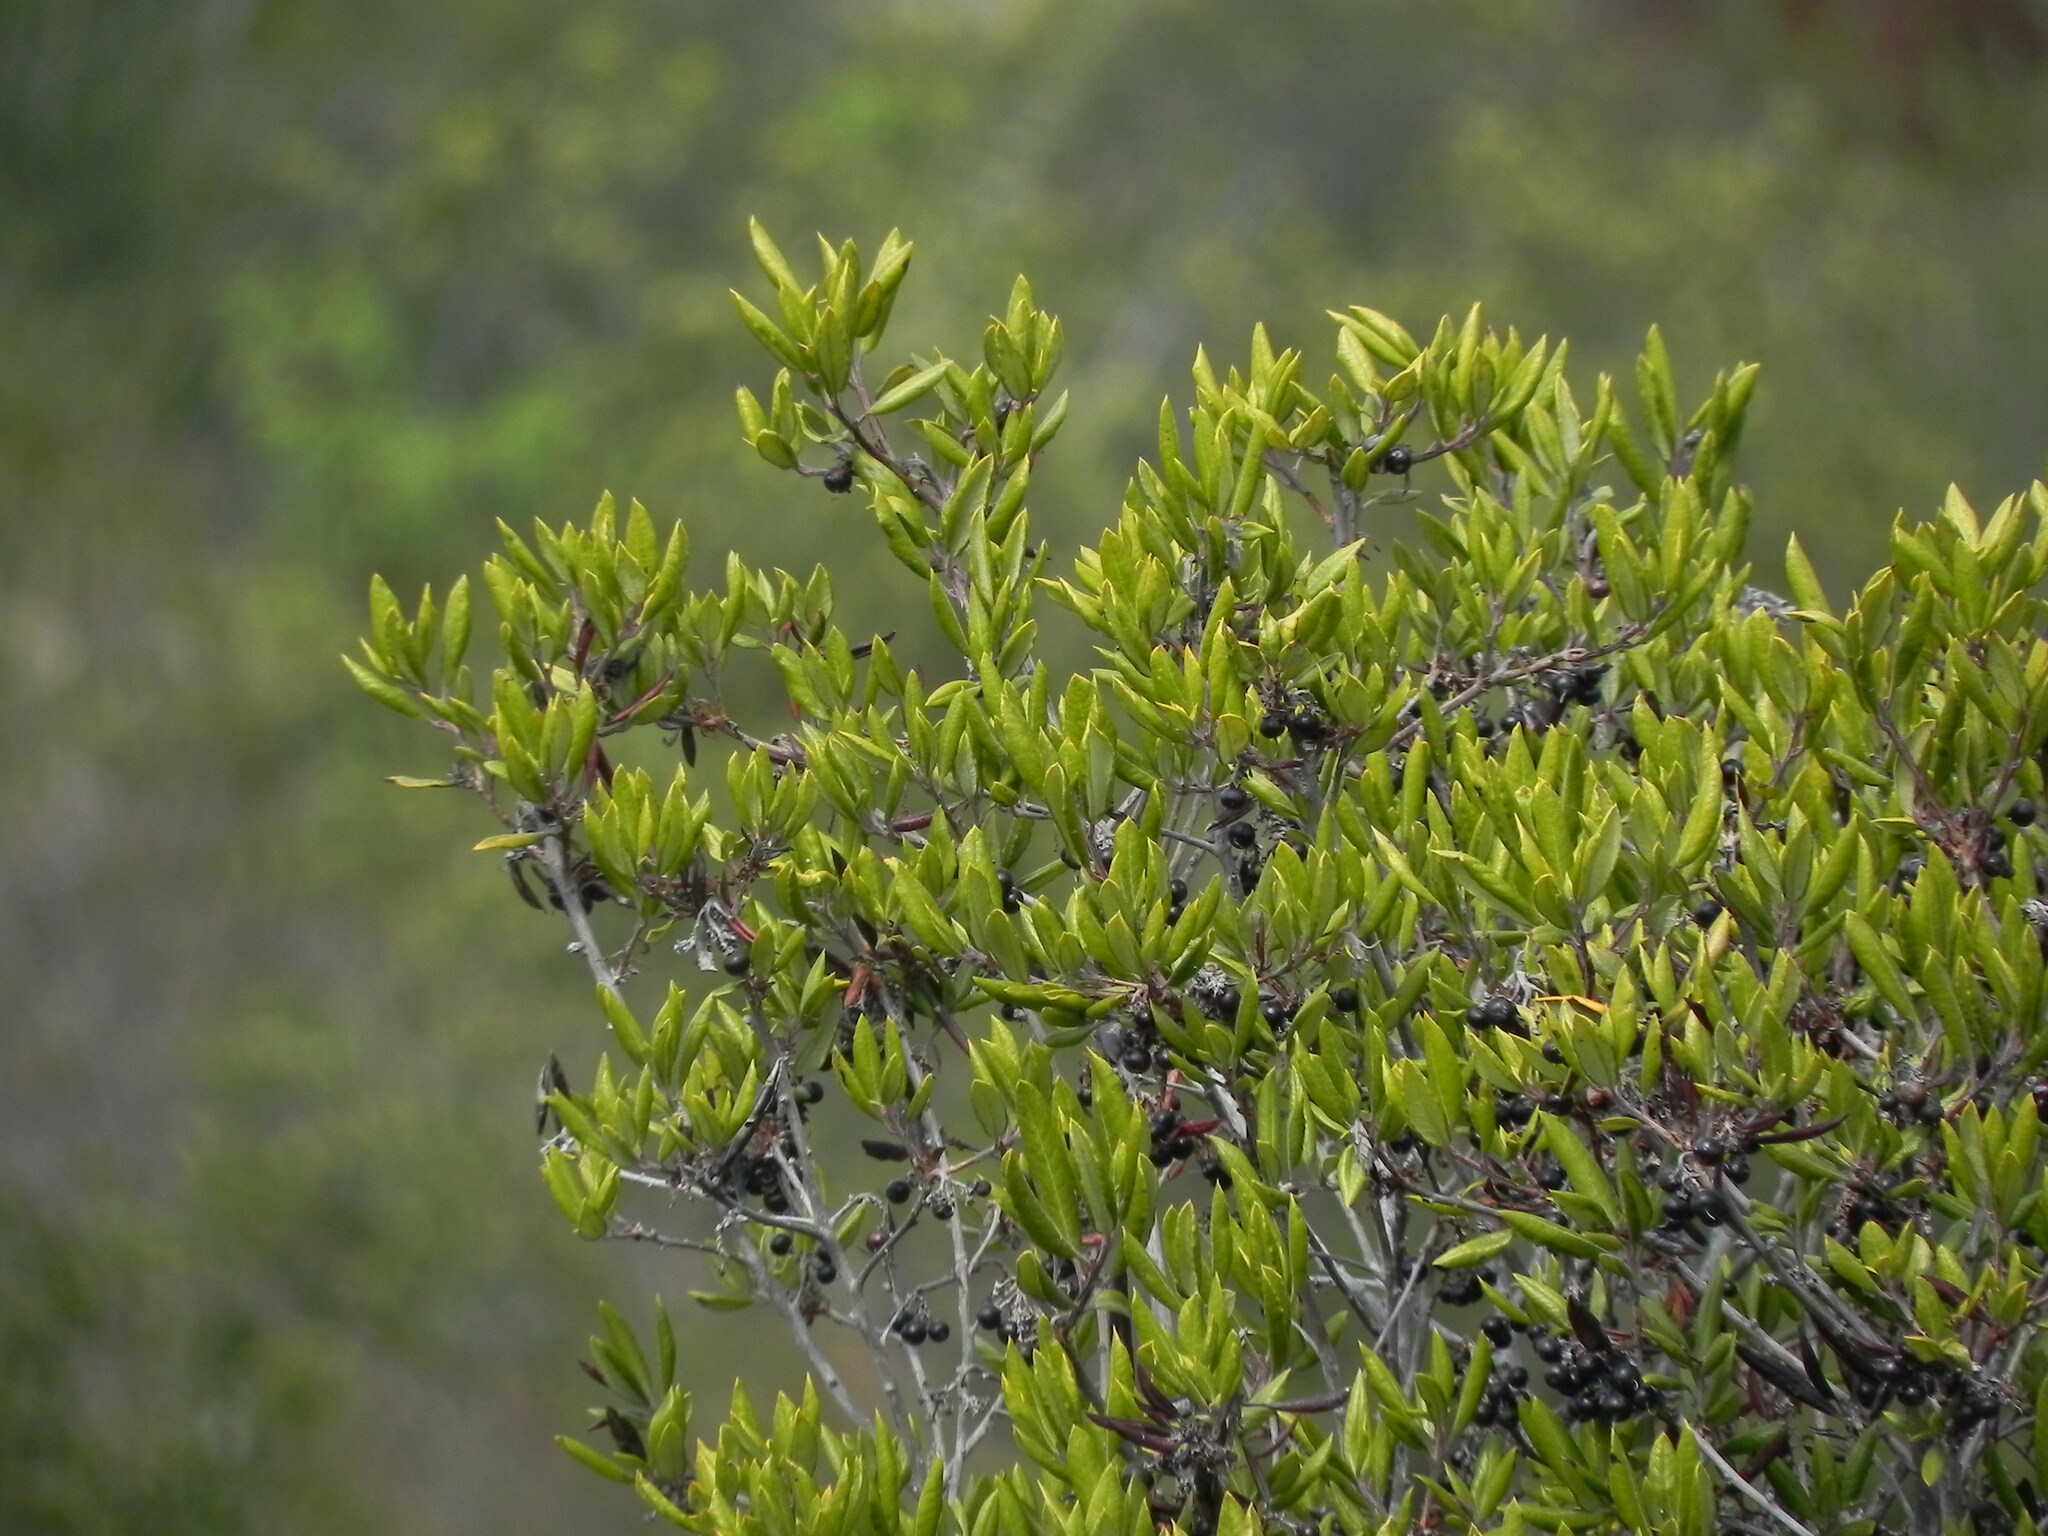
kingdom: Plantae
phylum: Tracheophyta
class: Magnoliopsida
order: Ericales
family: Ericaceae
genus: Arctostaphylos
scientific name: Arctostaphylos bicolor
